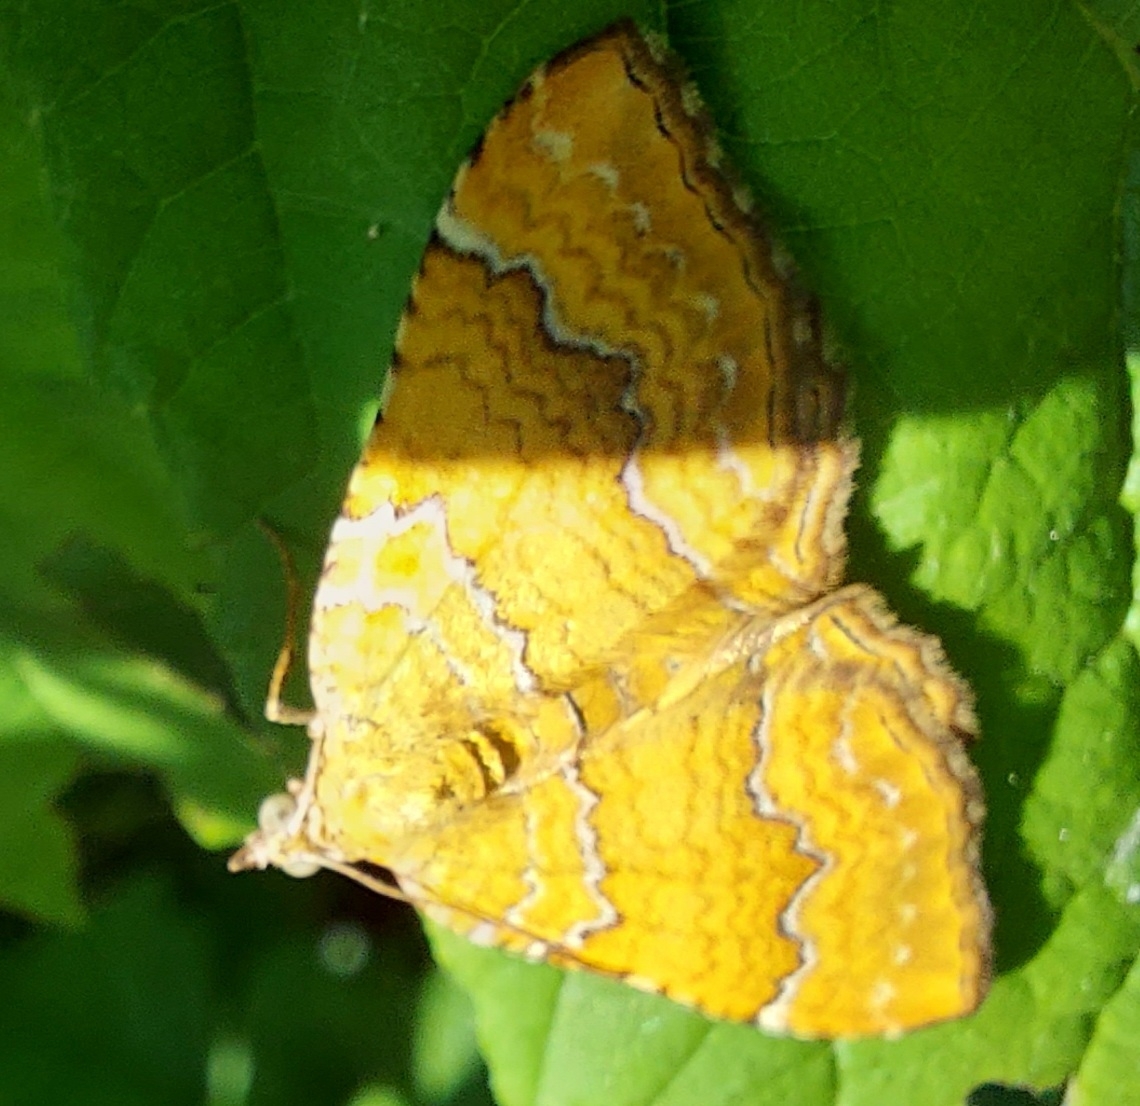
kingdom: Animalia
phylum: Arthropoda
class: Insecta
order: Lepidoptera
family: Geometridae
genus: Camptogramma
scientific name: Camptogramma bilineata
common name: Yellow shell
